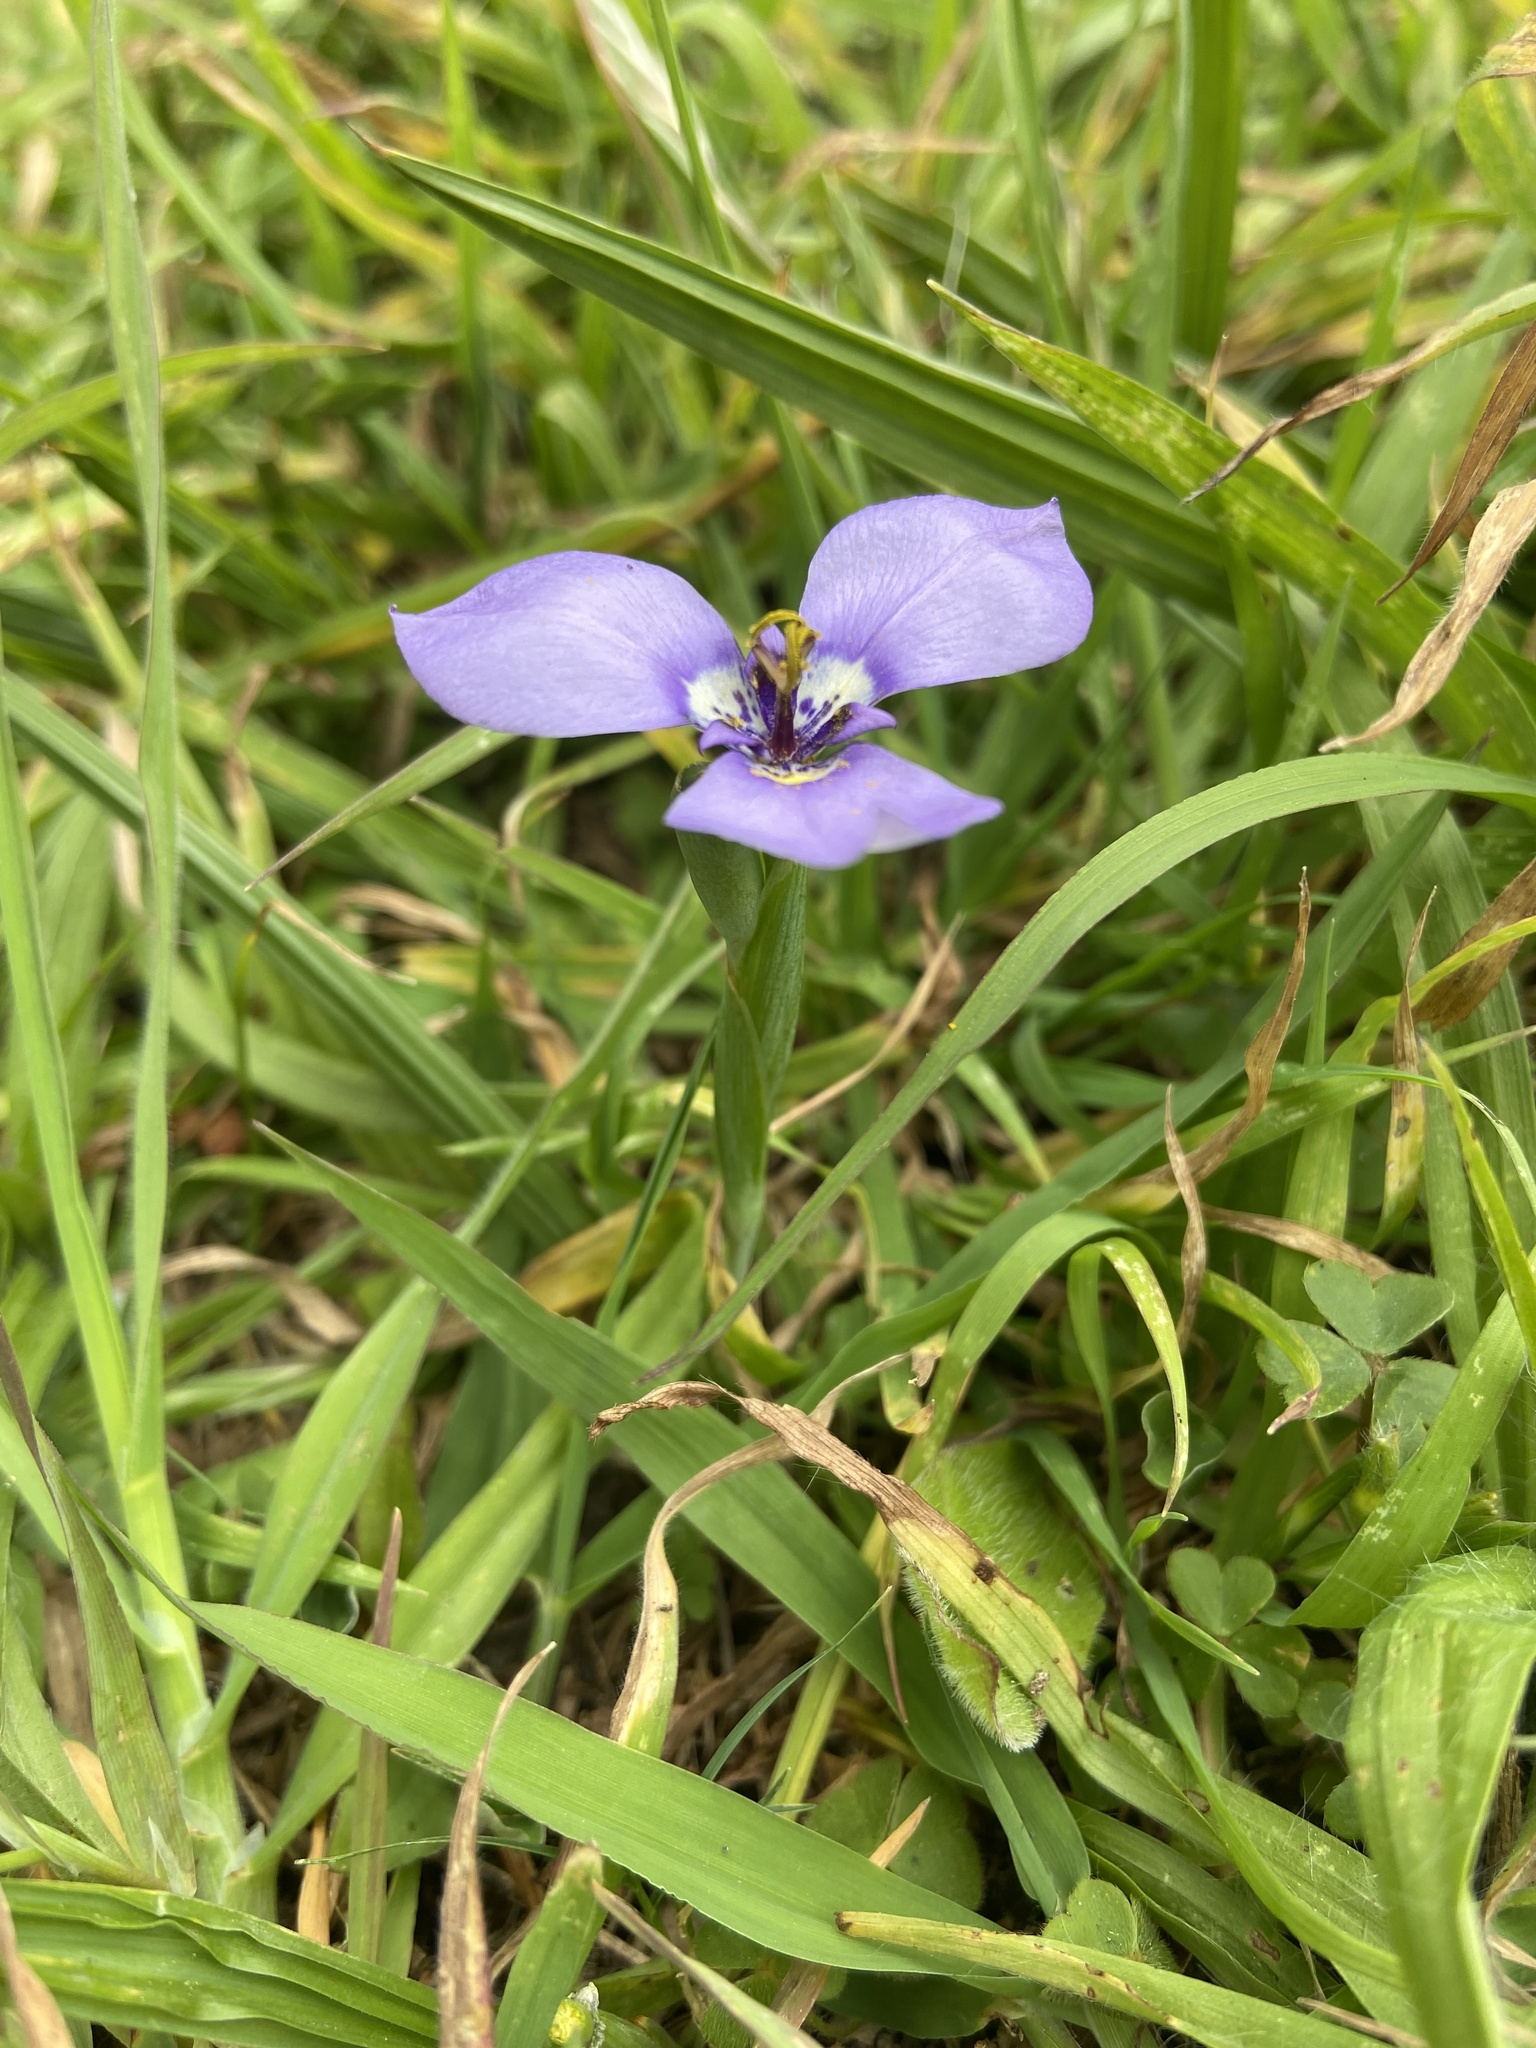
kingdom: Plantae
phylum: Tracheophyta
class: Liliopsida
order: Asparagales
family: Iridaceae
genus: Herbertia
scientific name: Herbertia lahue
